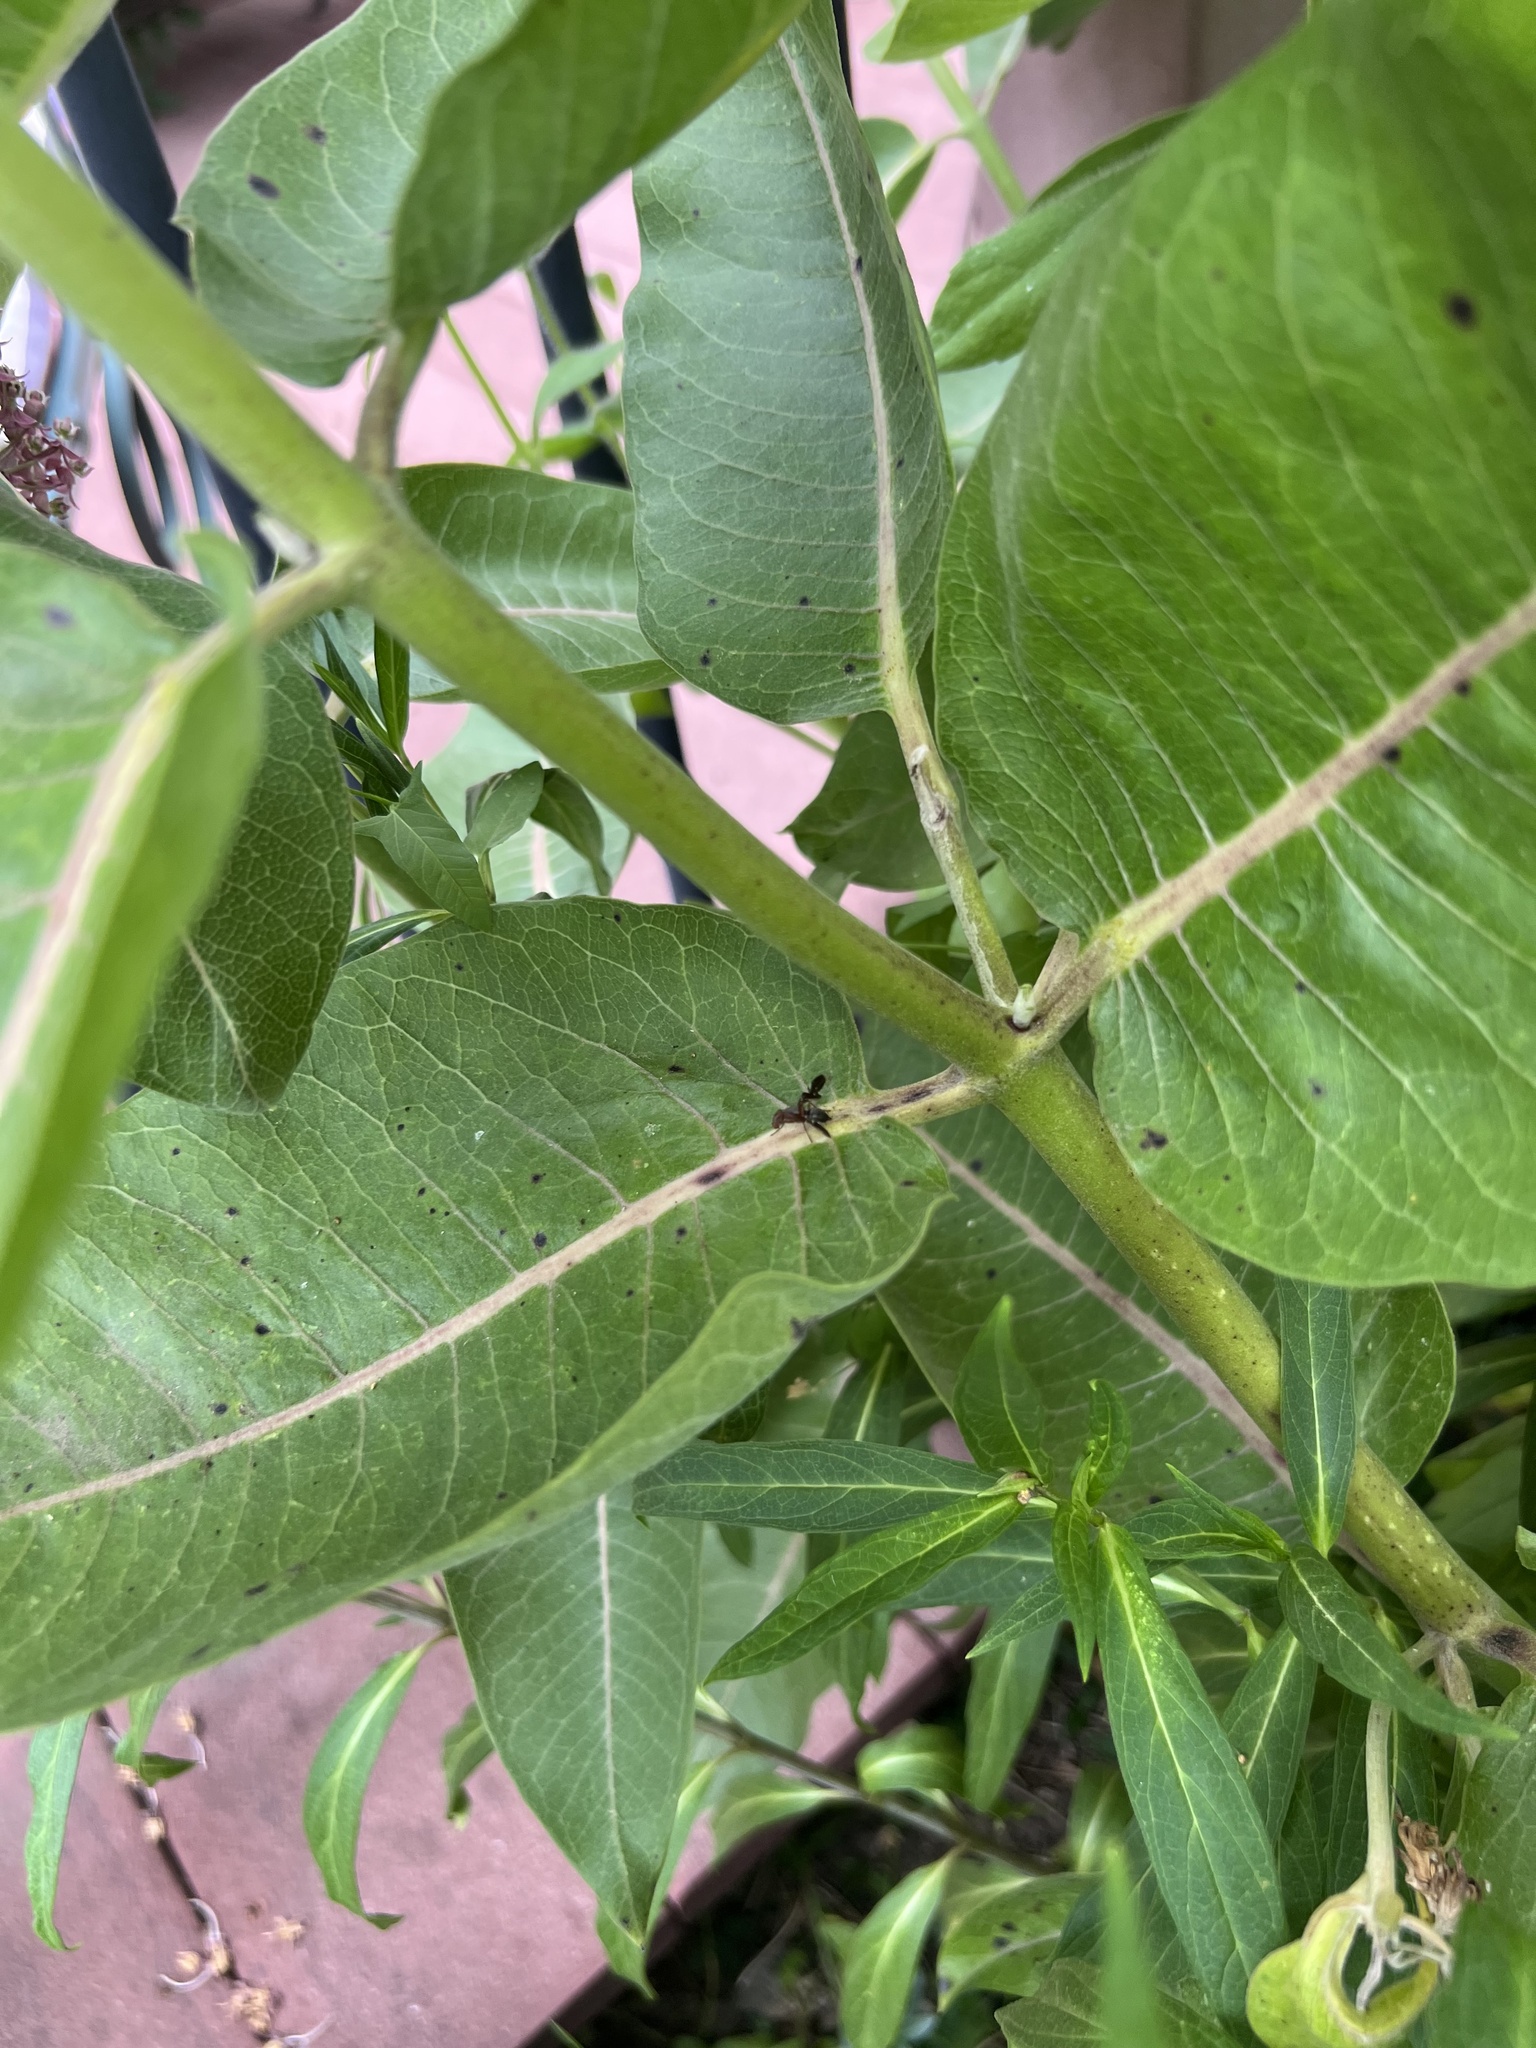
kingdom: Animalia
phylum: Arthropoda
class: Insecta
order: Diptera
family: Ulidiidae
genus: Delphinia
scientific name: Delphinia picta
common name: Common picture-winged fly
